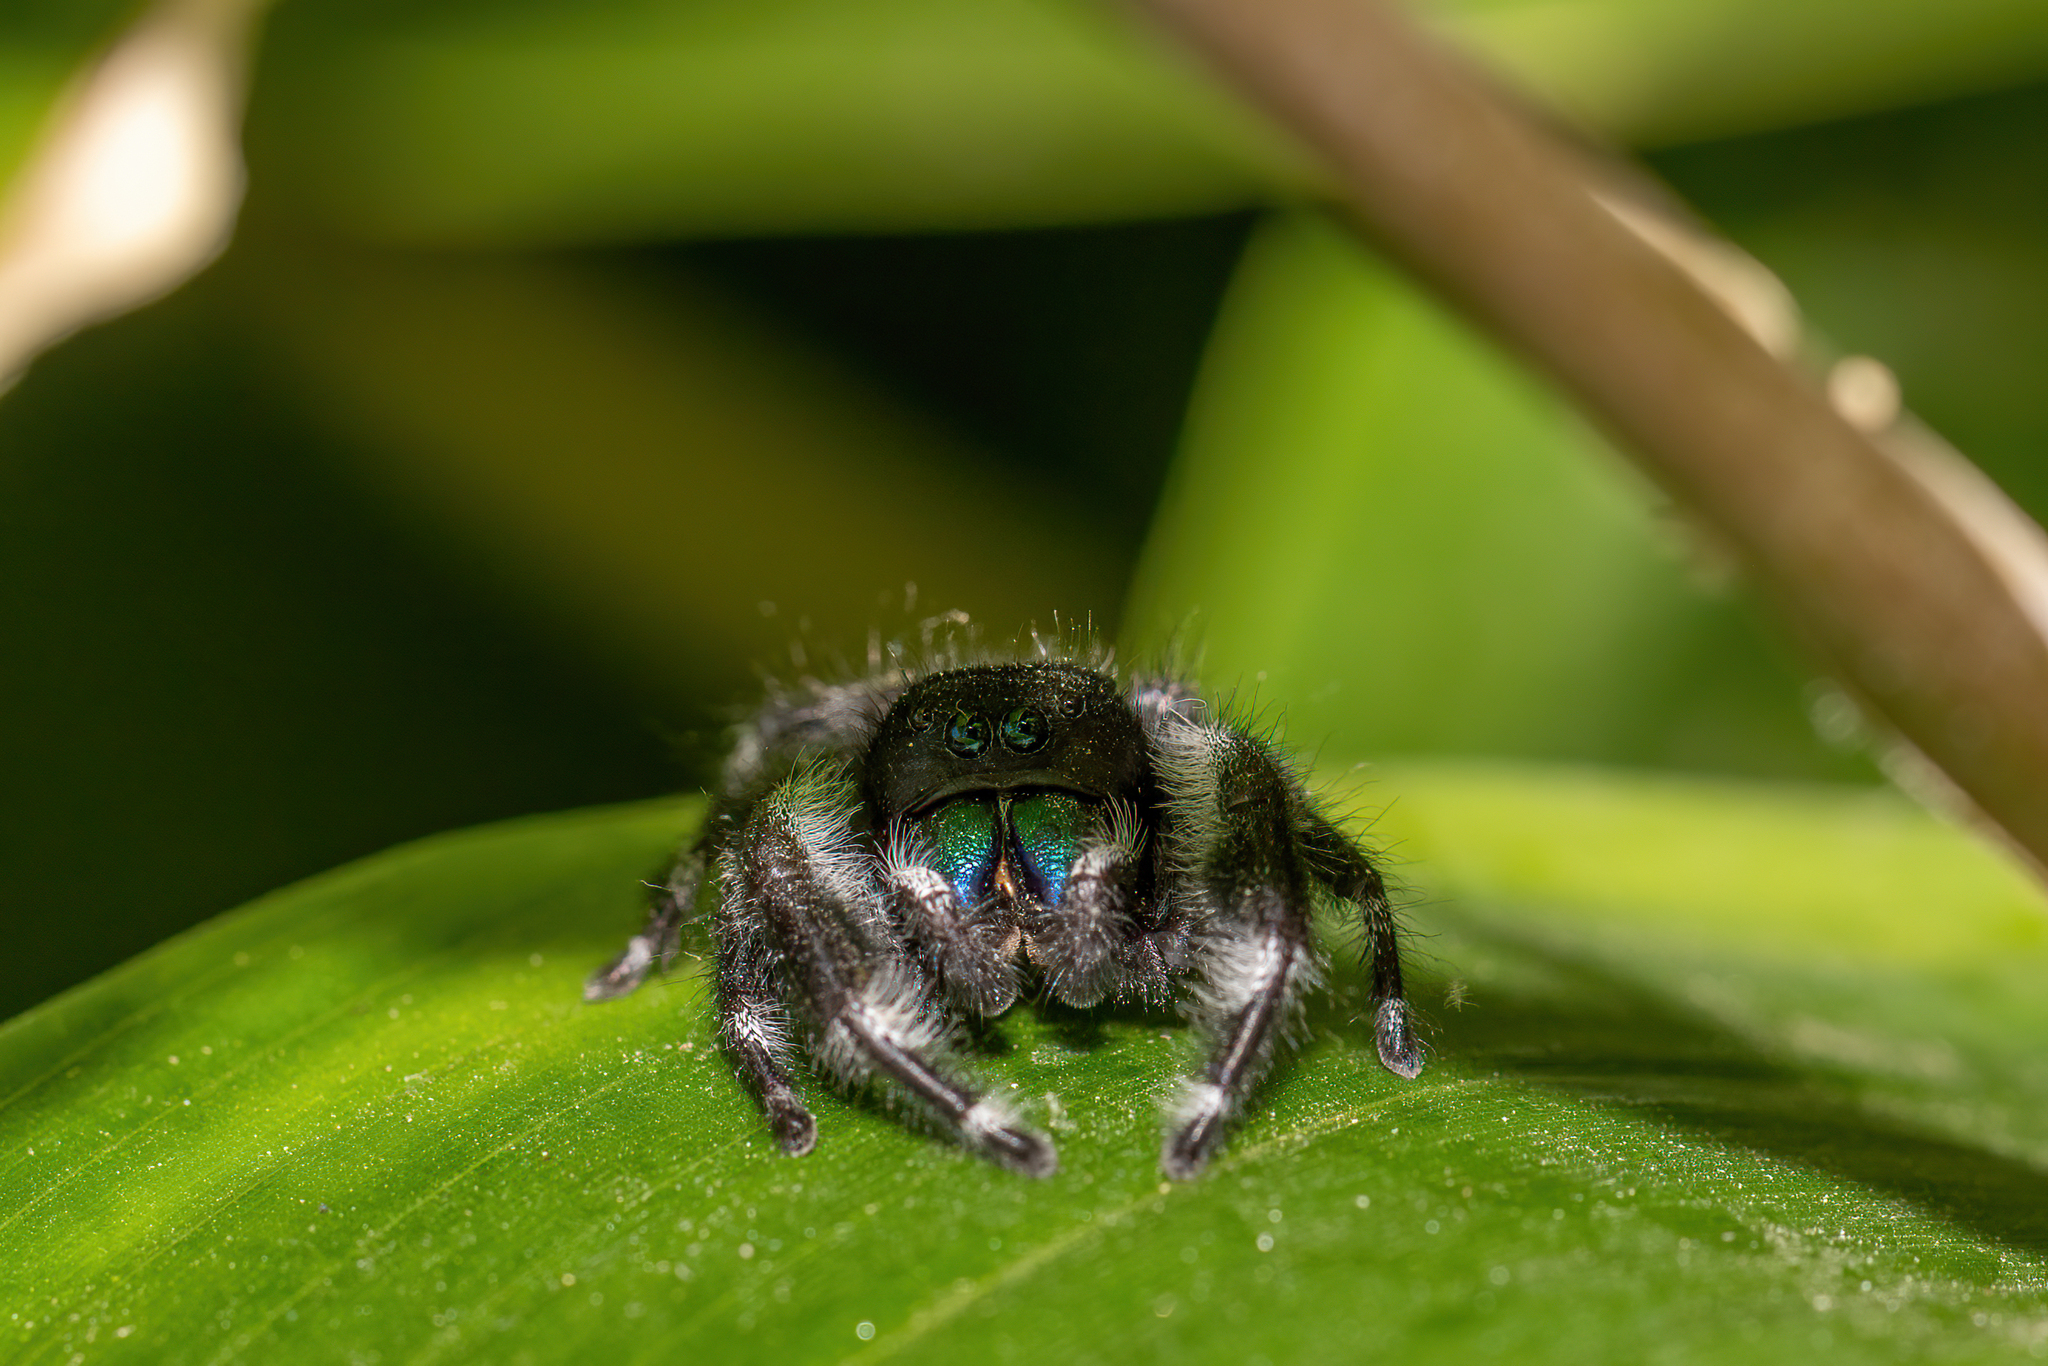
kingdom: Animalia
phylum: Arthropoda
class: Arachnida
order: Araneae
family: Salticidae
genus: Phidippus
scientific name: Phidippus audax
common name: Bold jumper
